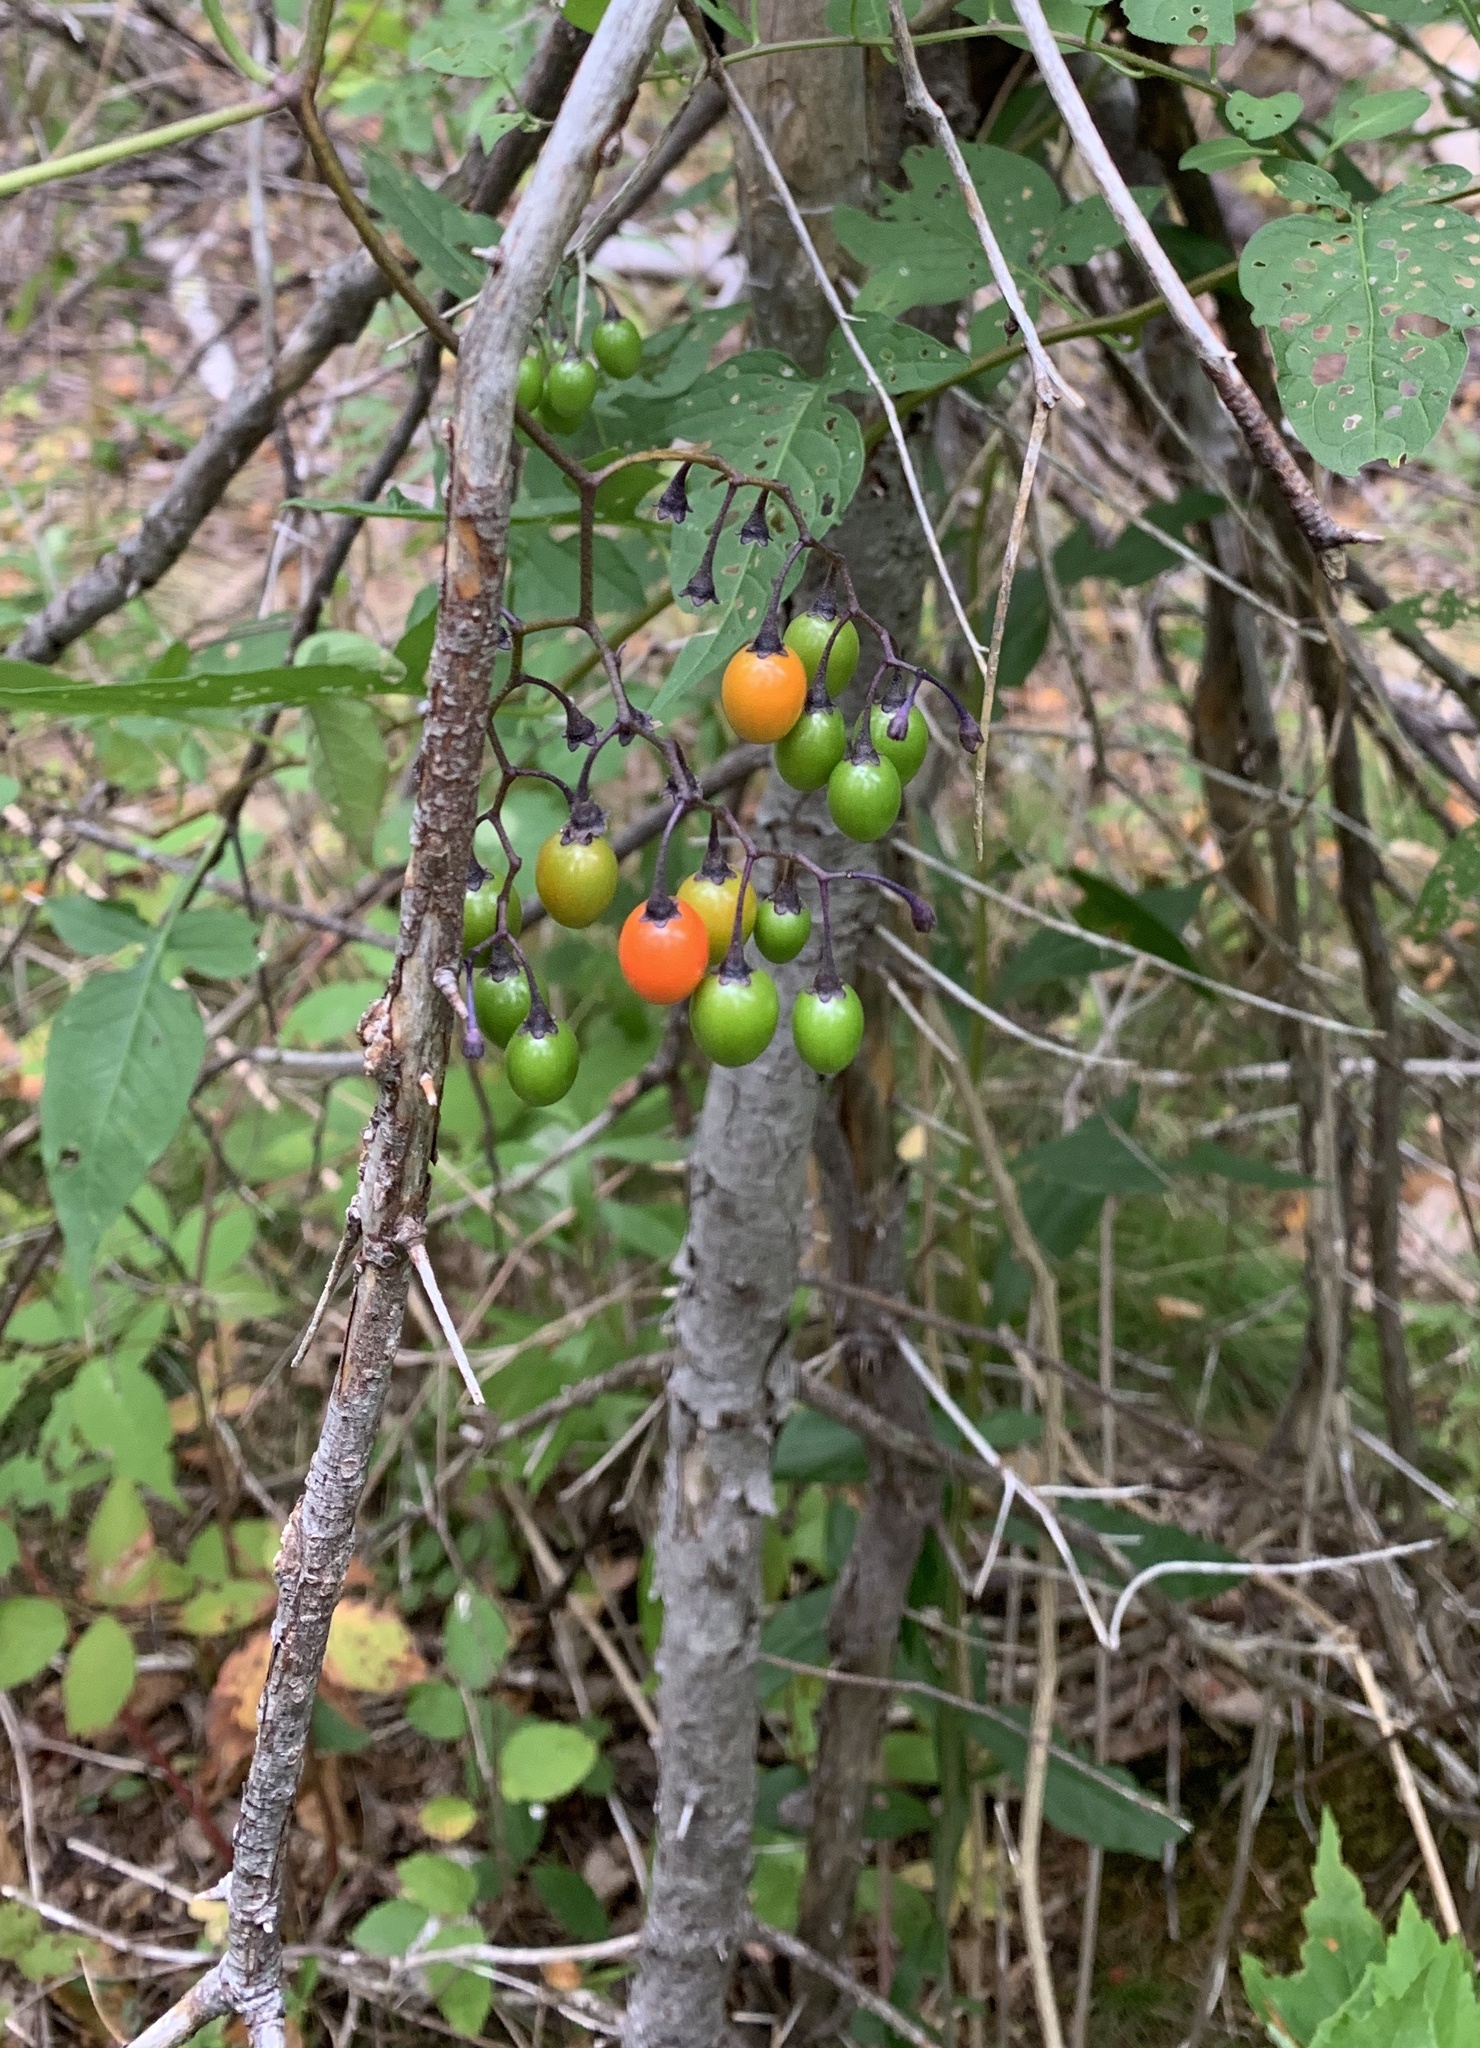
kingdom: Plantae
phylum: Tracheophyta
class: Magnoliopsida
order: Solanales
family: Solanaceae
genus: Solanum
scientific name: Solanum dulcamara
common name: Climbing nightshade
